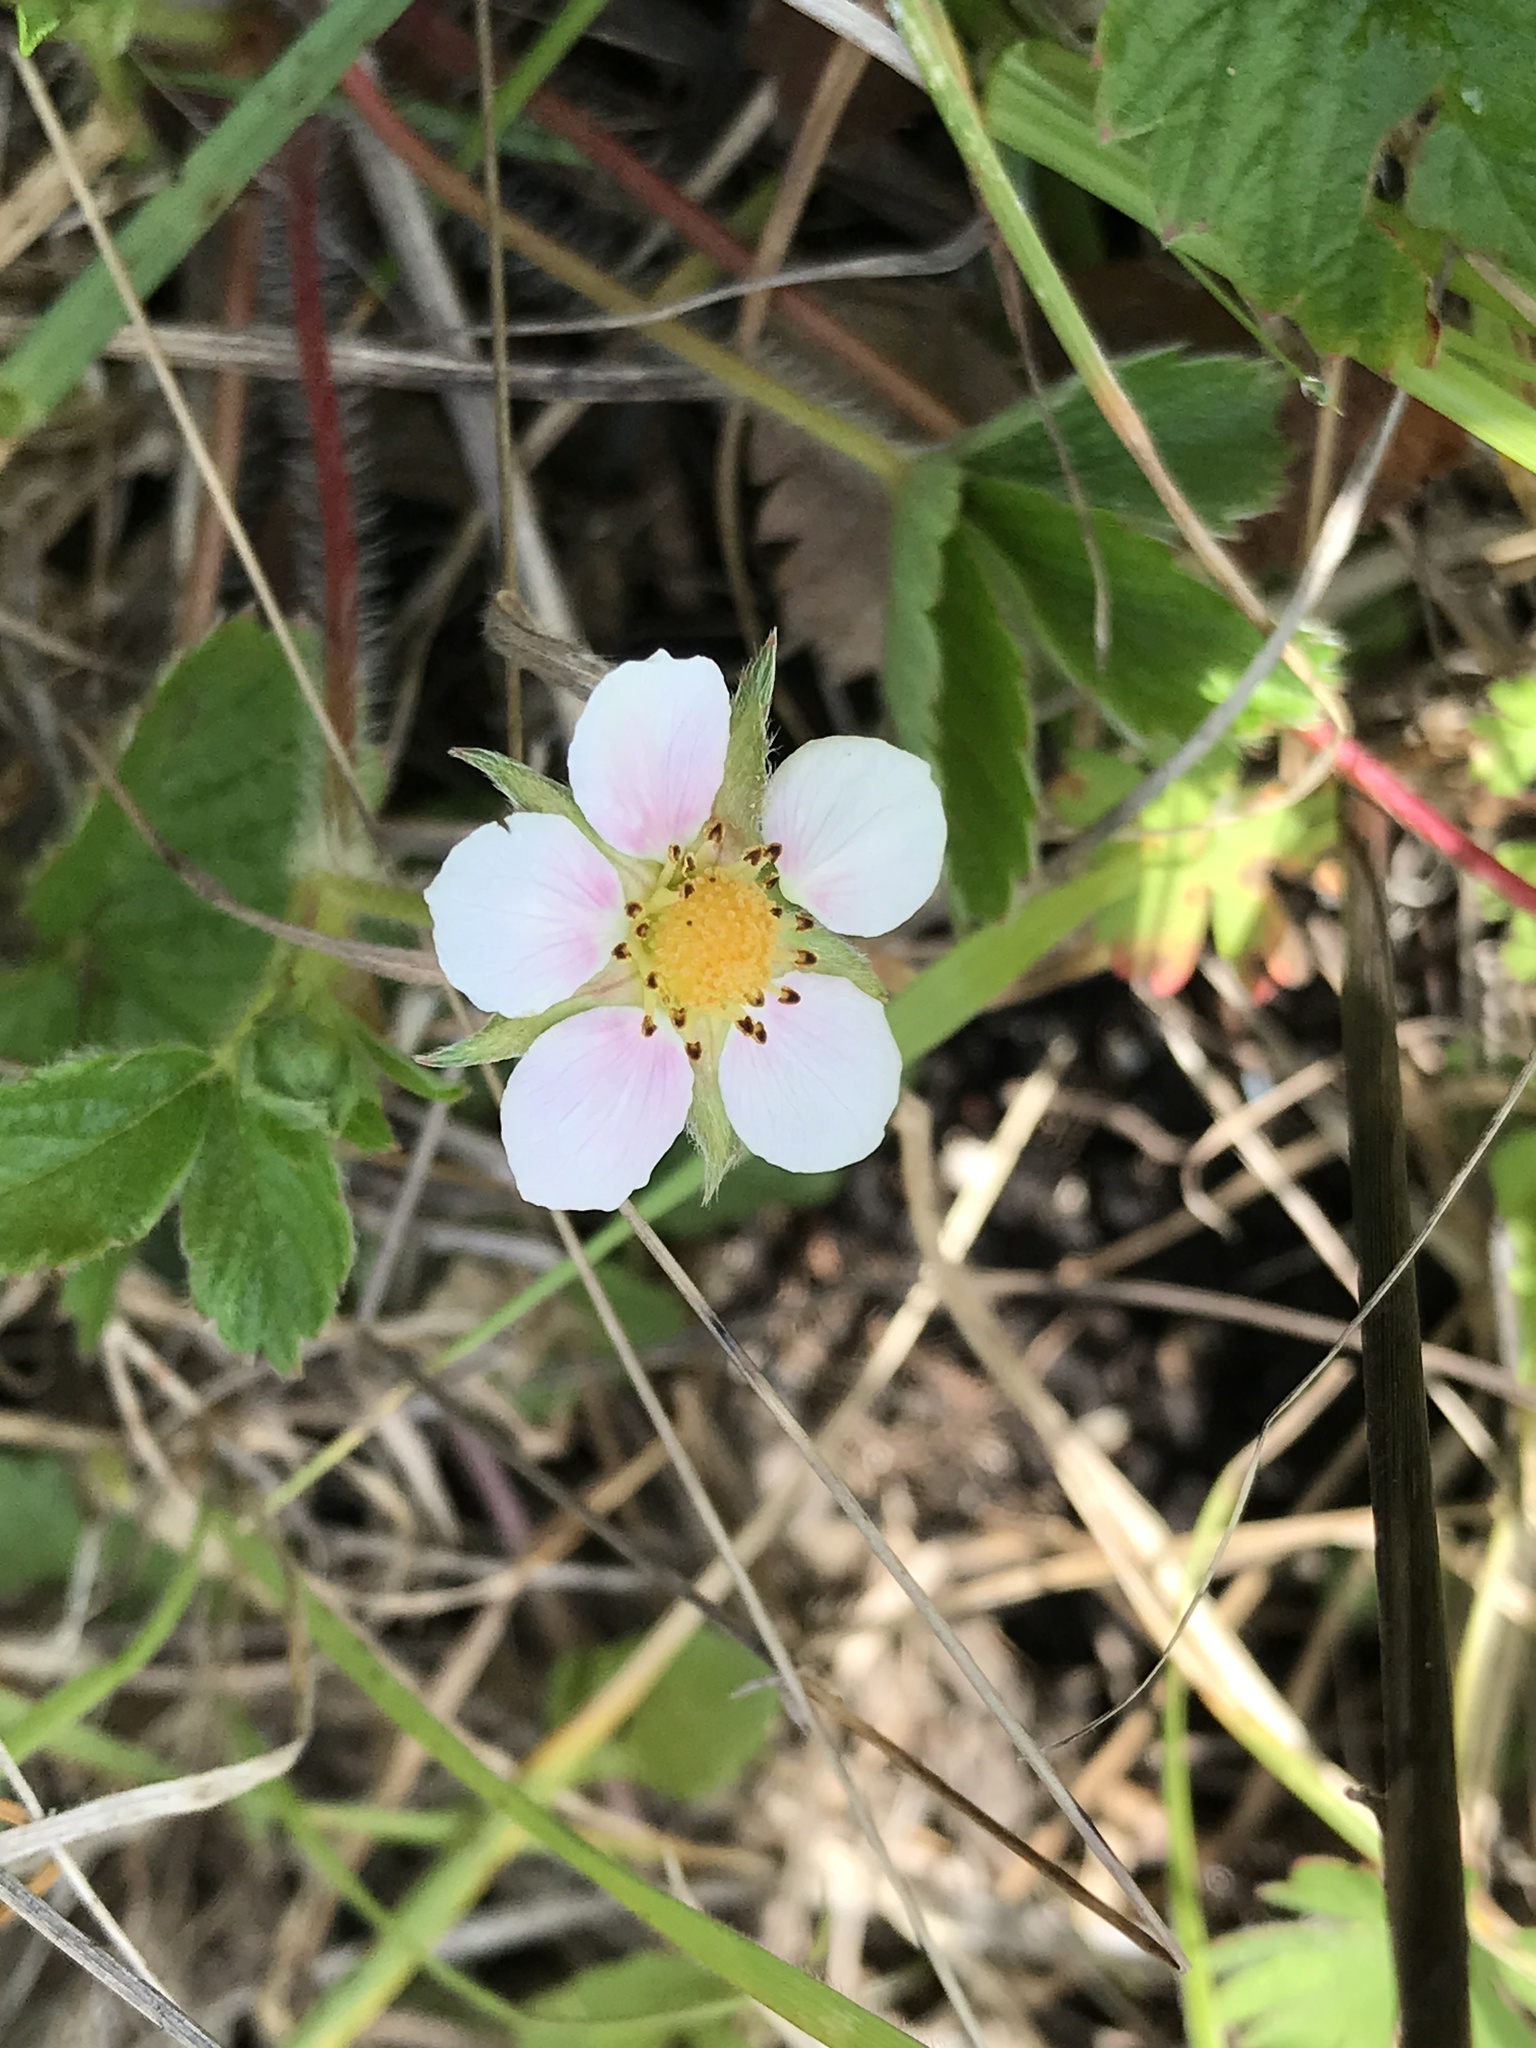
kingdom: Plantae
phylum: Tracheophyta
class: Magnoliopsida
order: Rosales
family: Rosaceae
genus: Fragaria
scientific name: Fragaria vesca
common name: Wild strawberry
